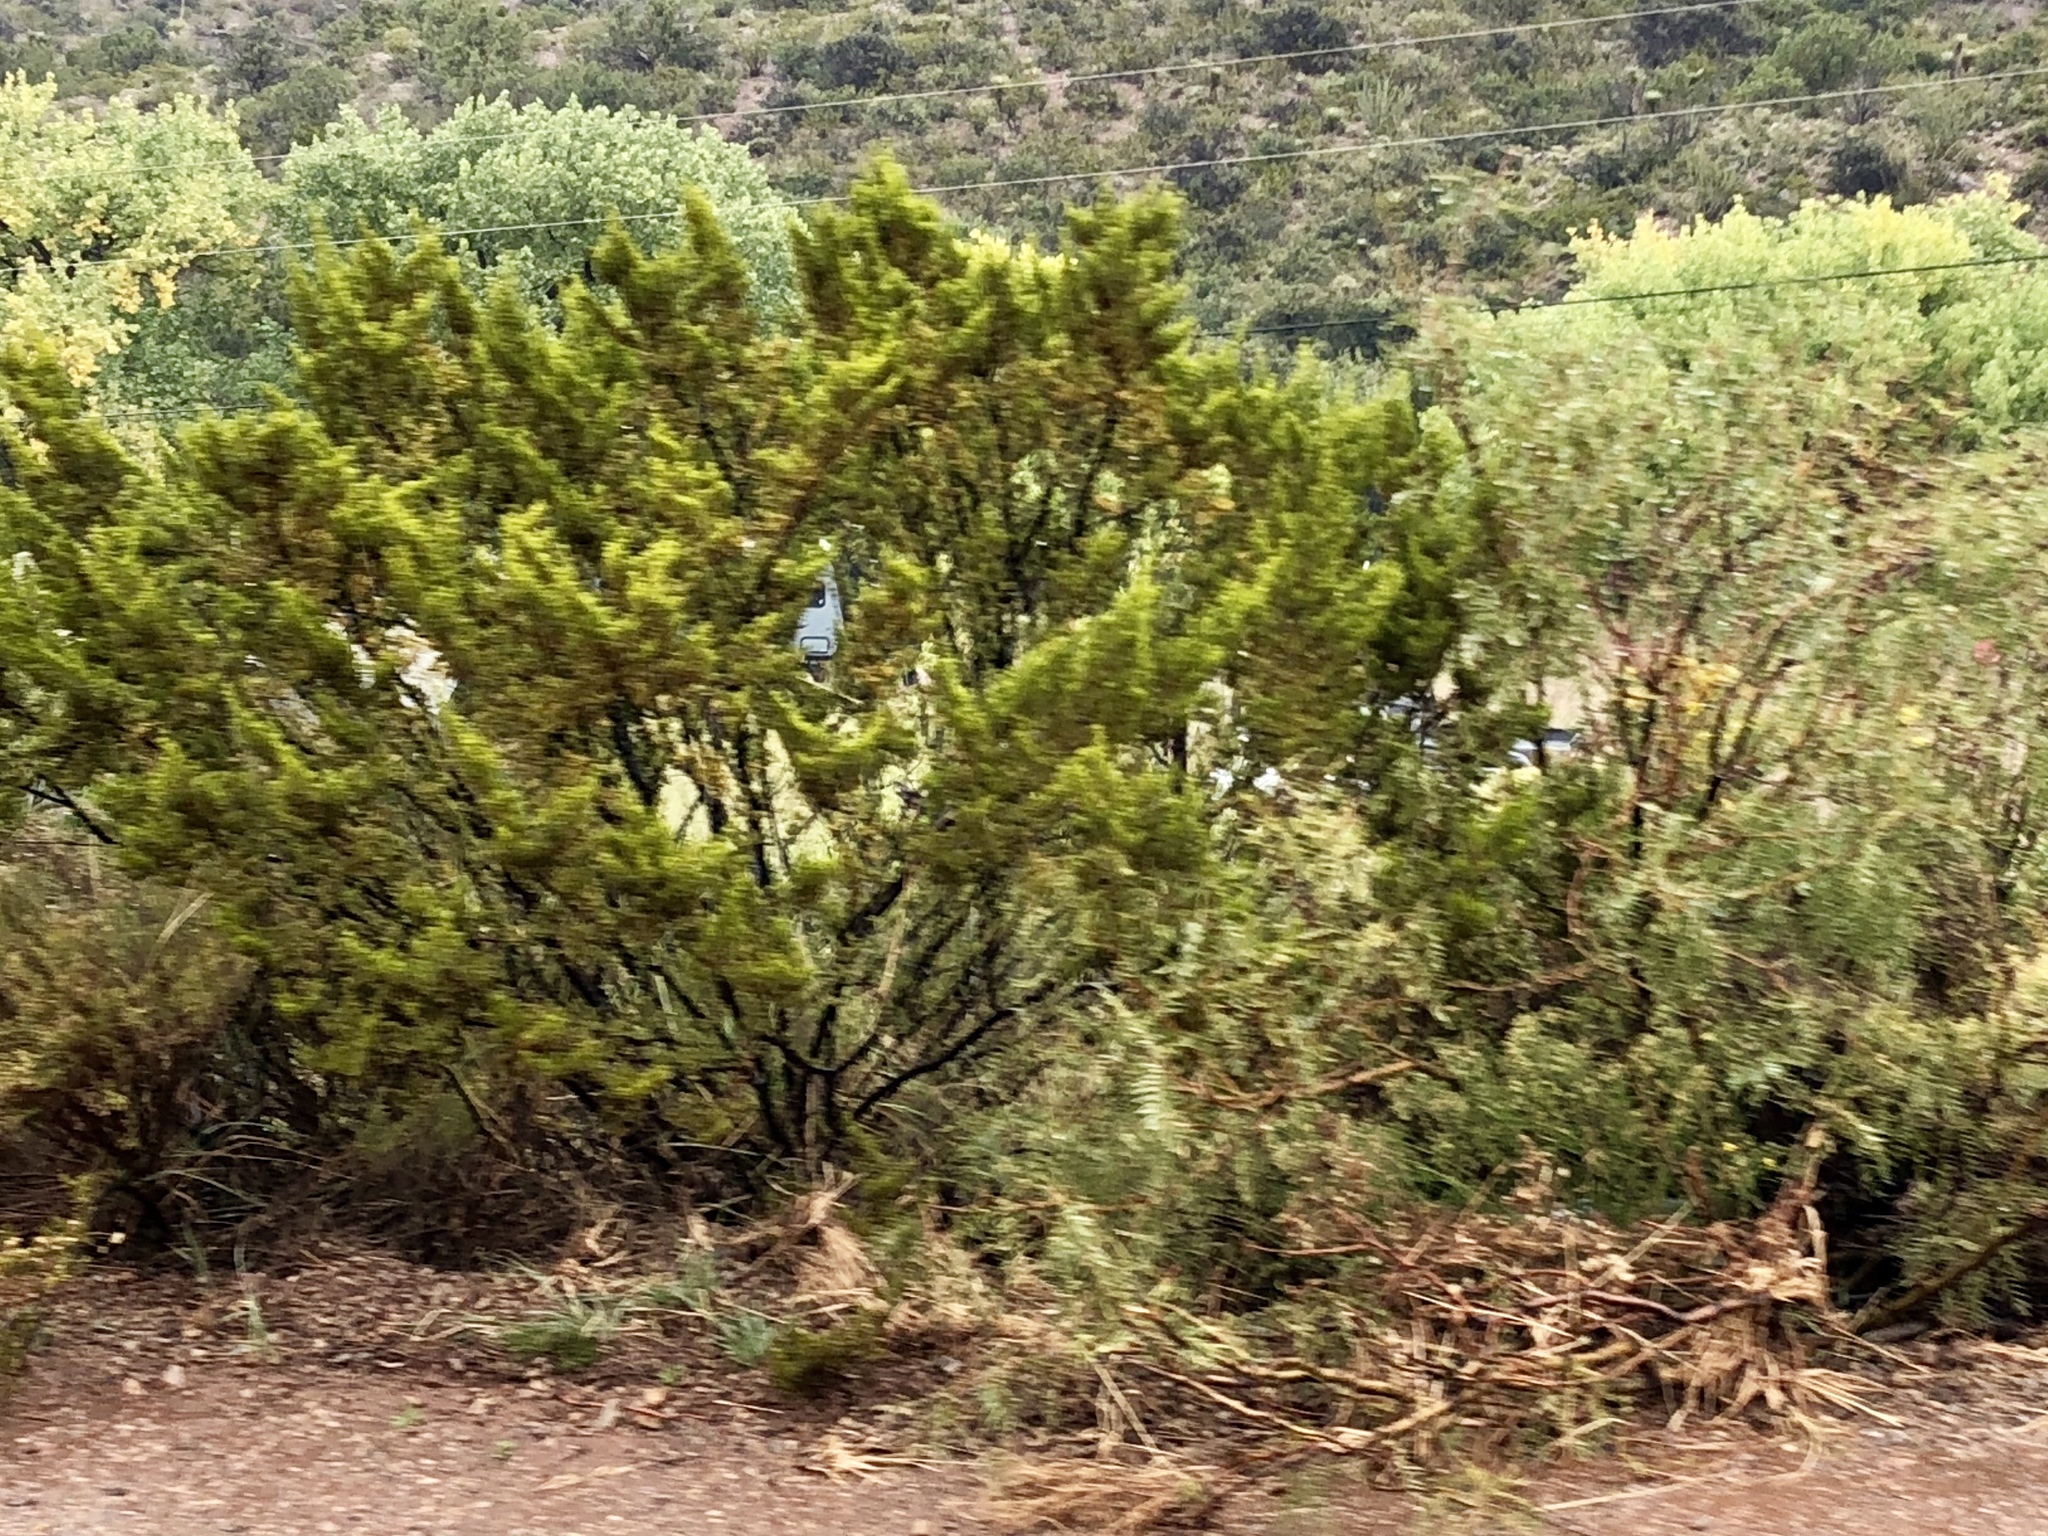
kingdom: Plantae
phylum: Tracheophyta
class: Magnoliopsida
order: Zygophyllales
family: Zygophyllaceae
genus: Larrea
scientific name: Larrea tridentata
